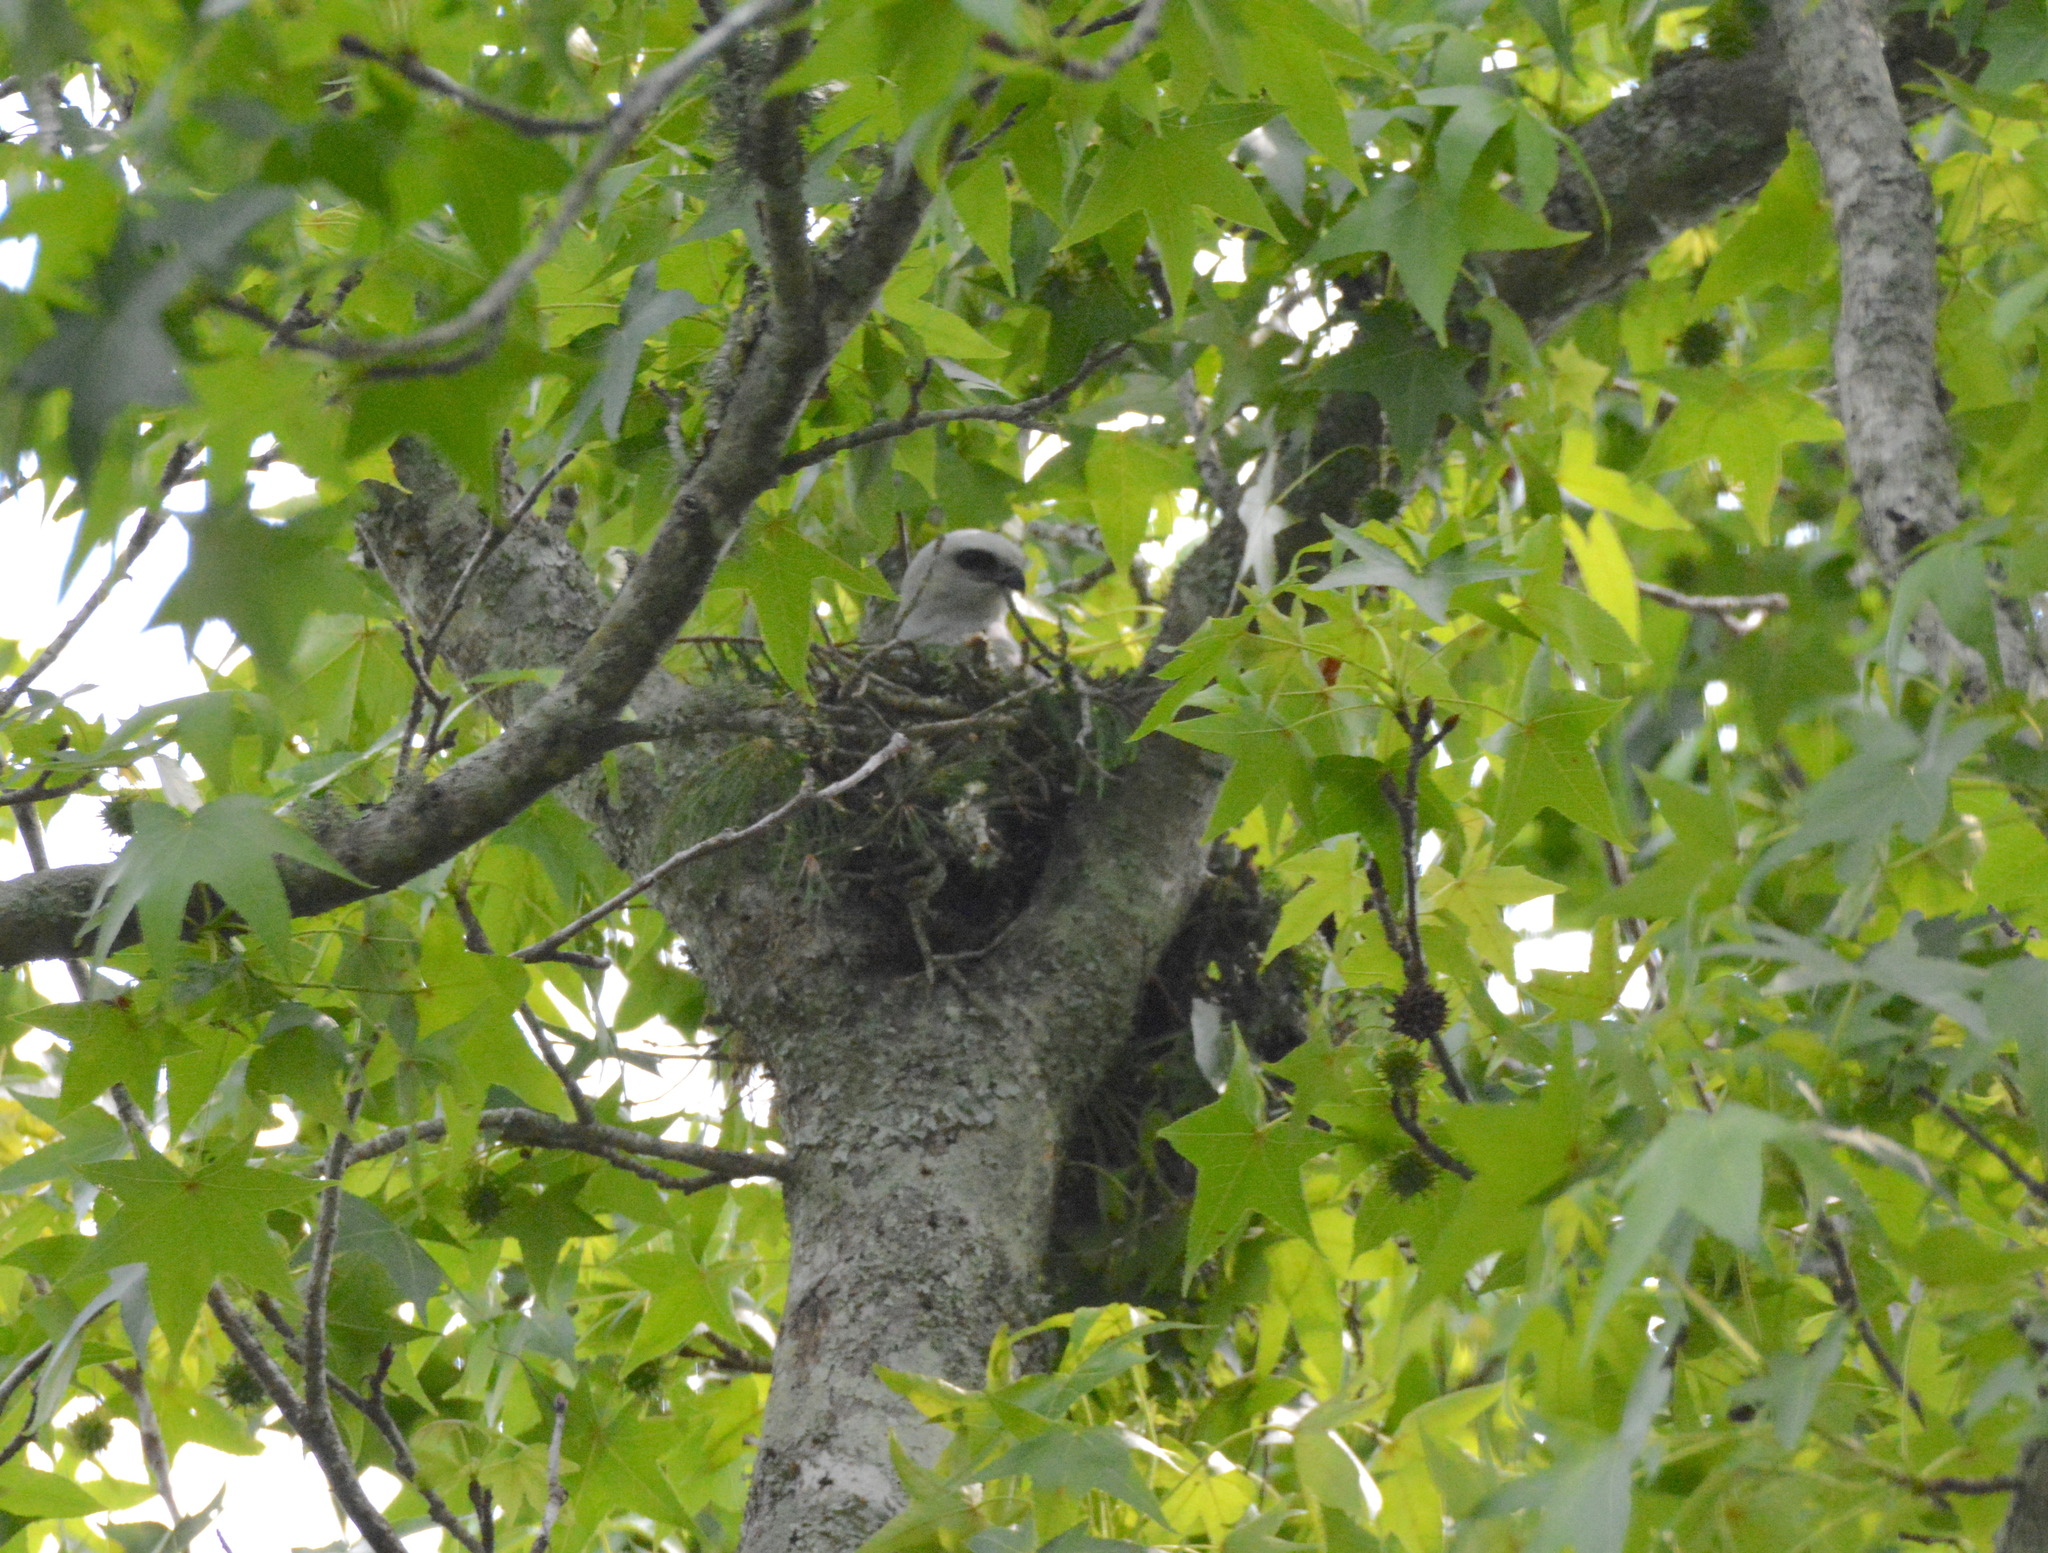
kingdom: Animalia
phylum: Chordata
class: Aves
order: Accipitriformes
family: Accipitridae
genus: Ictinia
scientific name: Ictinia mississippiensis
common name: Mississippi kite
